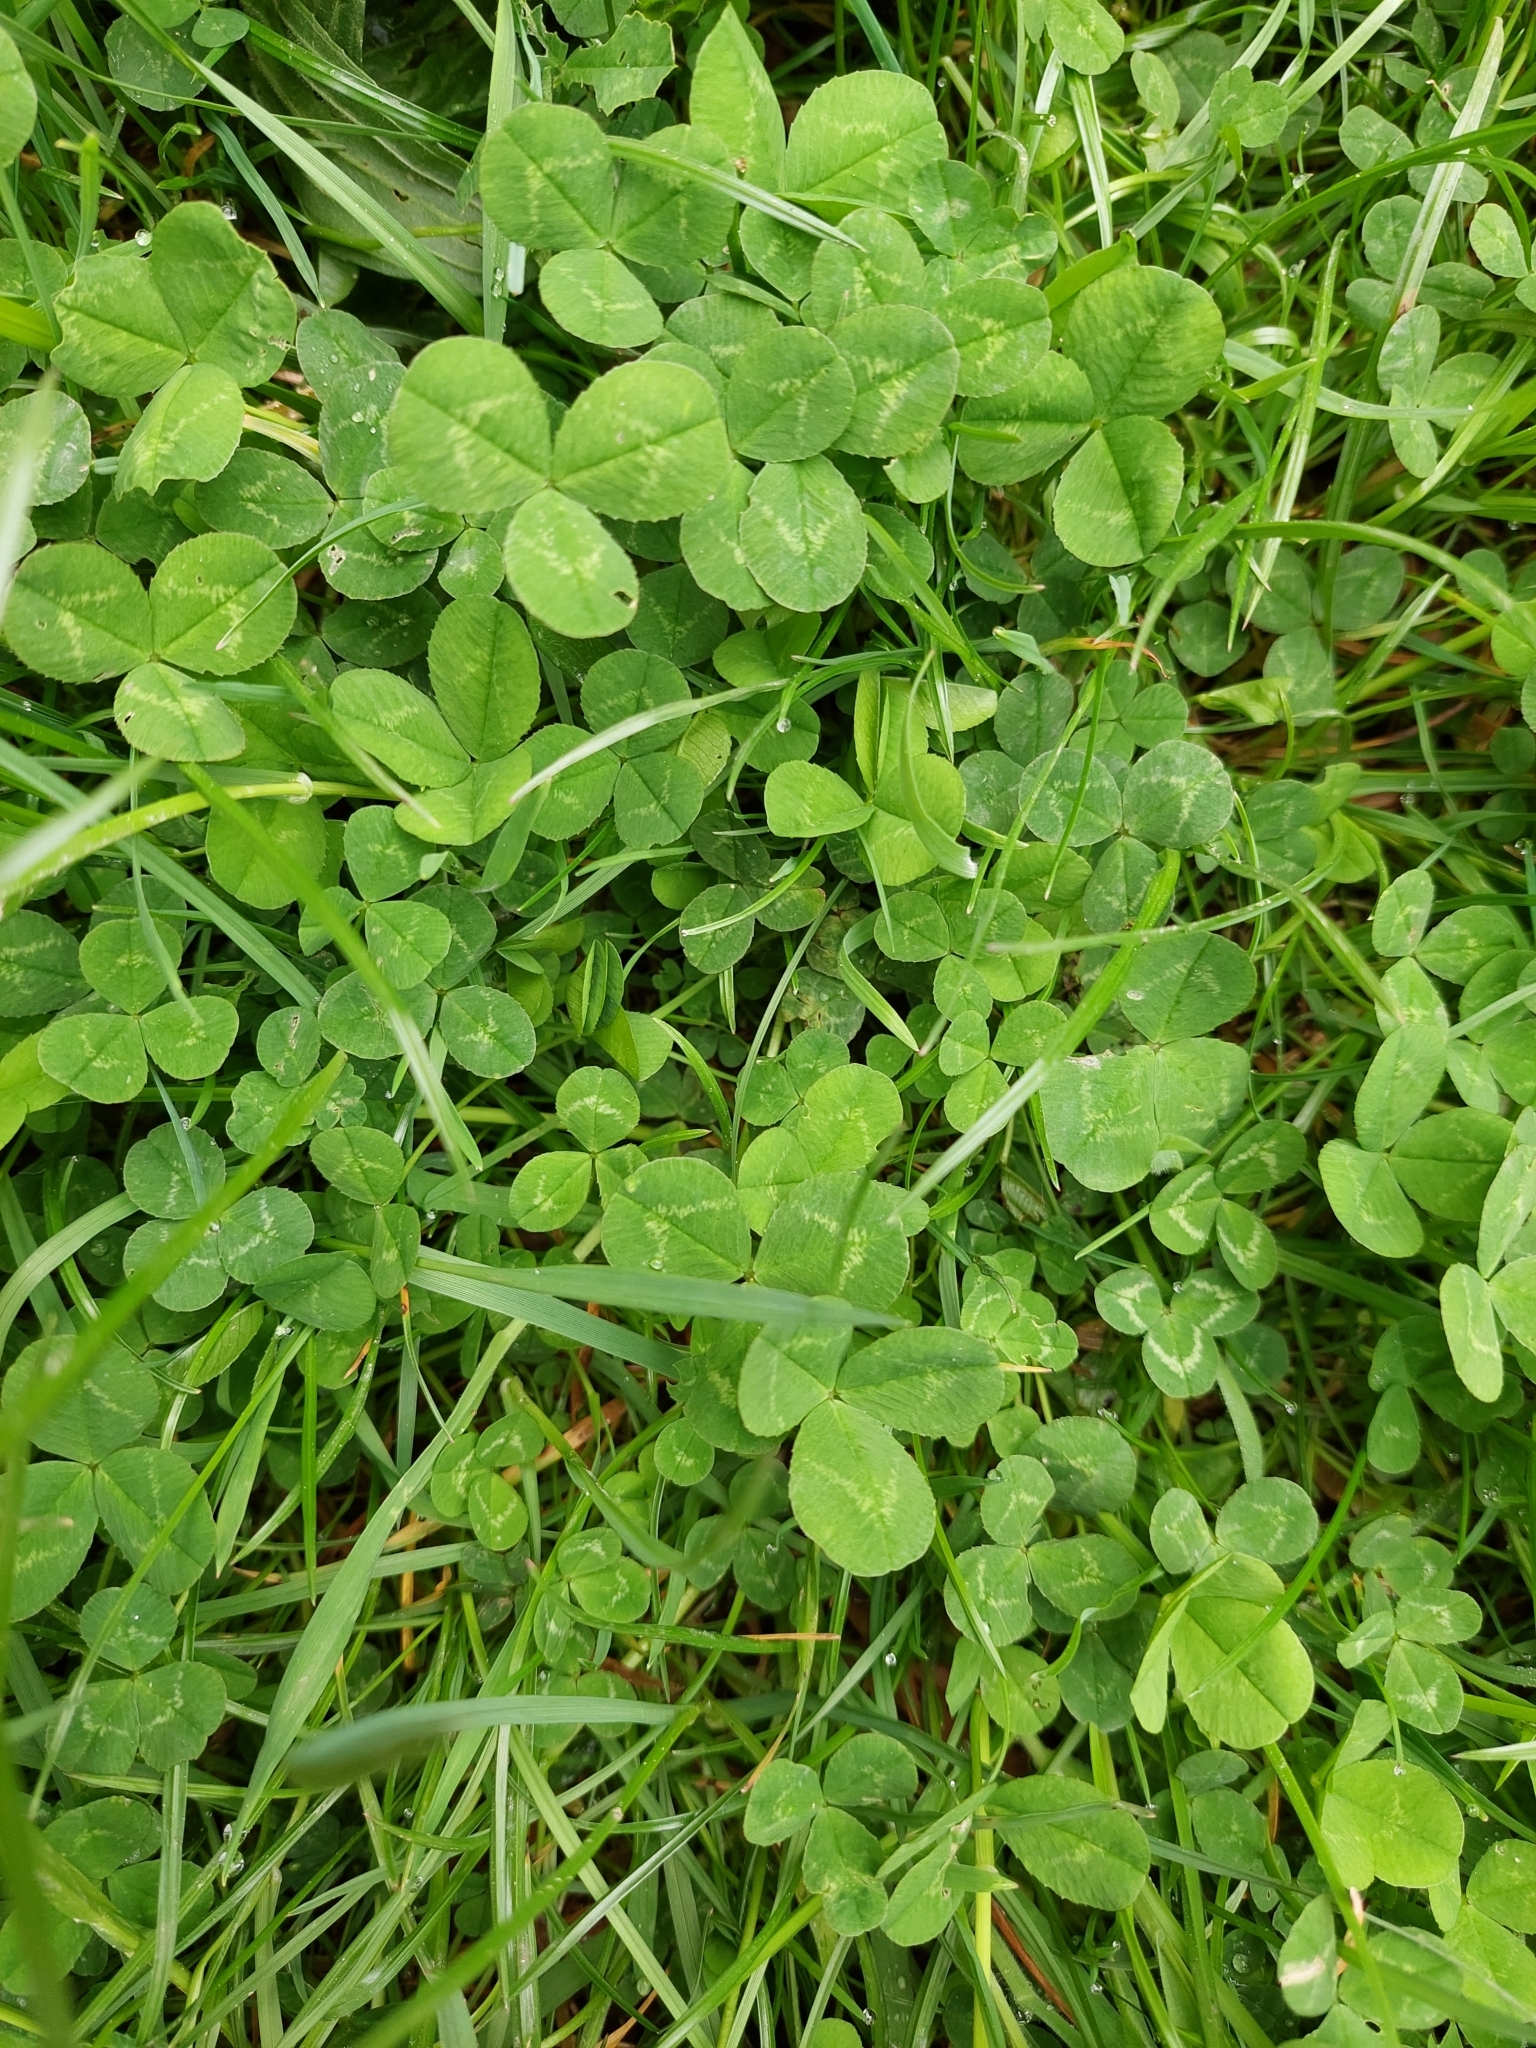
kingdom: Plantae
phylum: Tracheophyta
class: Magnoliopsida
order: Fabales
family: Fabaceae
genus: Trifolium
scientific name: Trifolium repens
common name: White clover
